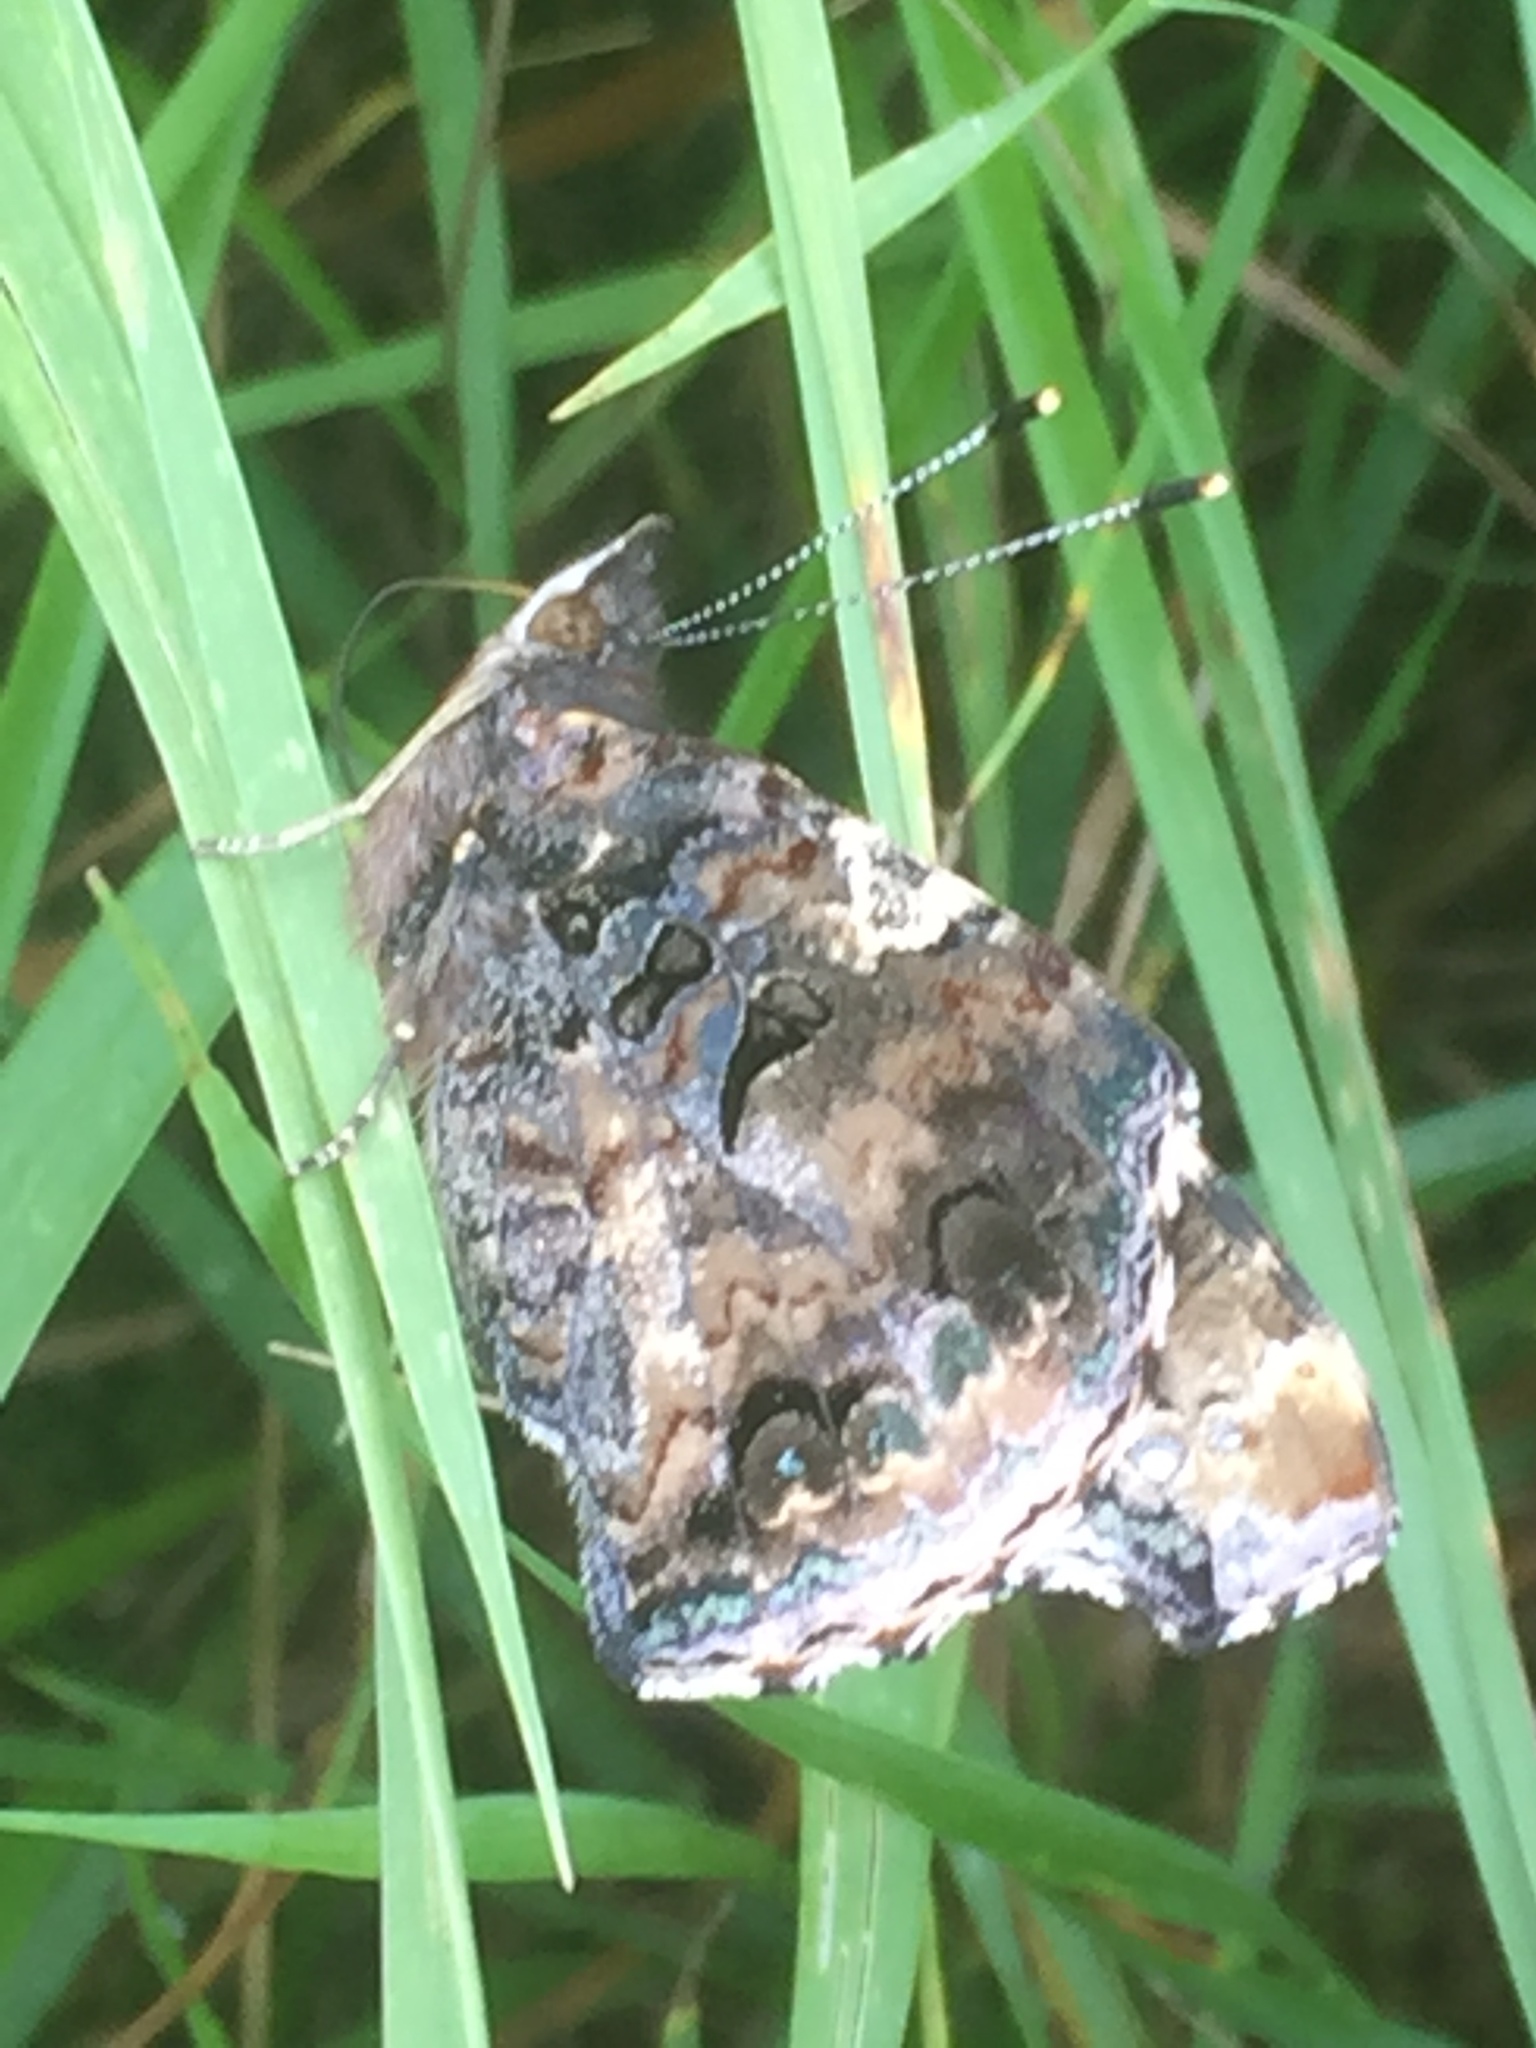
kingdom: Animalia
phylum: Arthropoda
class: Insecta
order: Lepidoptera
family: Nymphalidae
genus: Vanessa
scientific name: Vanessa atalanta
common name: Red admiral
